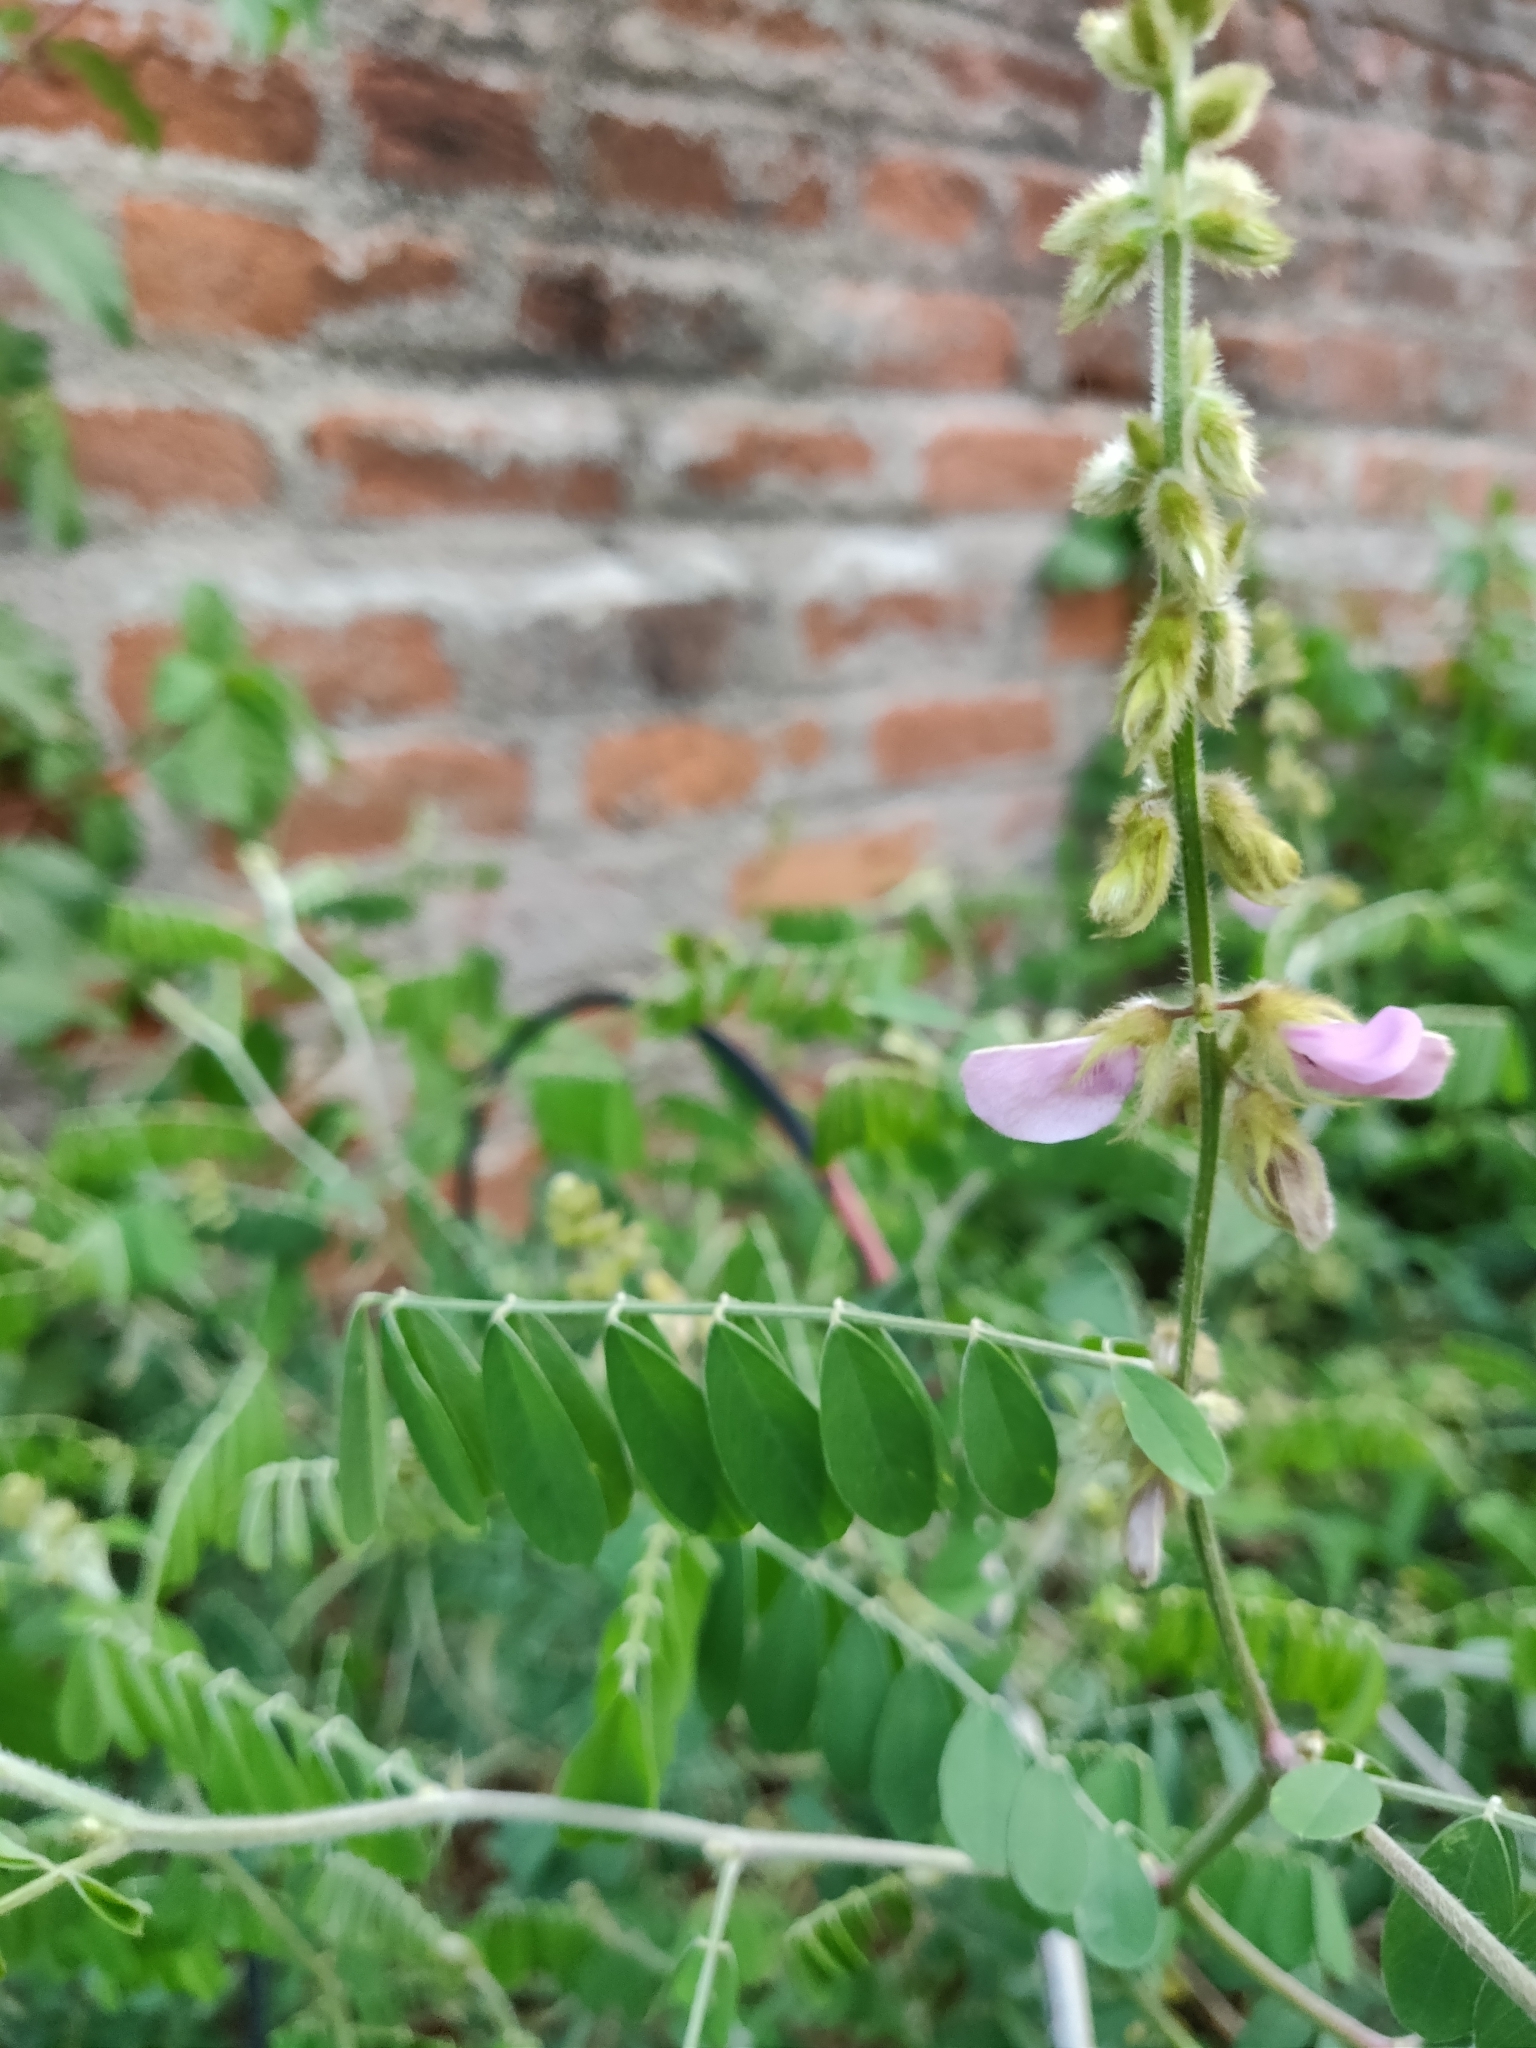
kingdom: Plantae
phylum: Tracheophyta
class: Magnoliopsida
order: Fabales
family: Fabaceae
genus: Tephrosia
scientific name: Tephrosia purpurea
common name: Fishpoison
